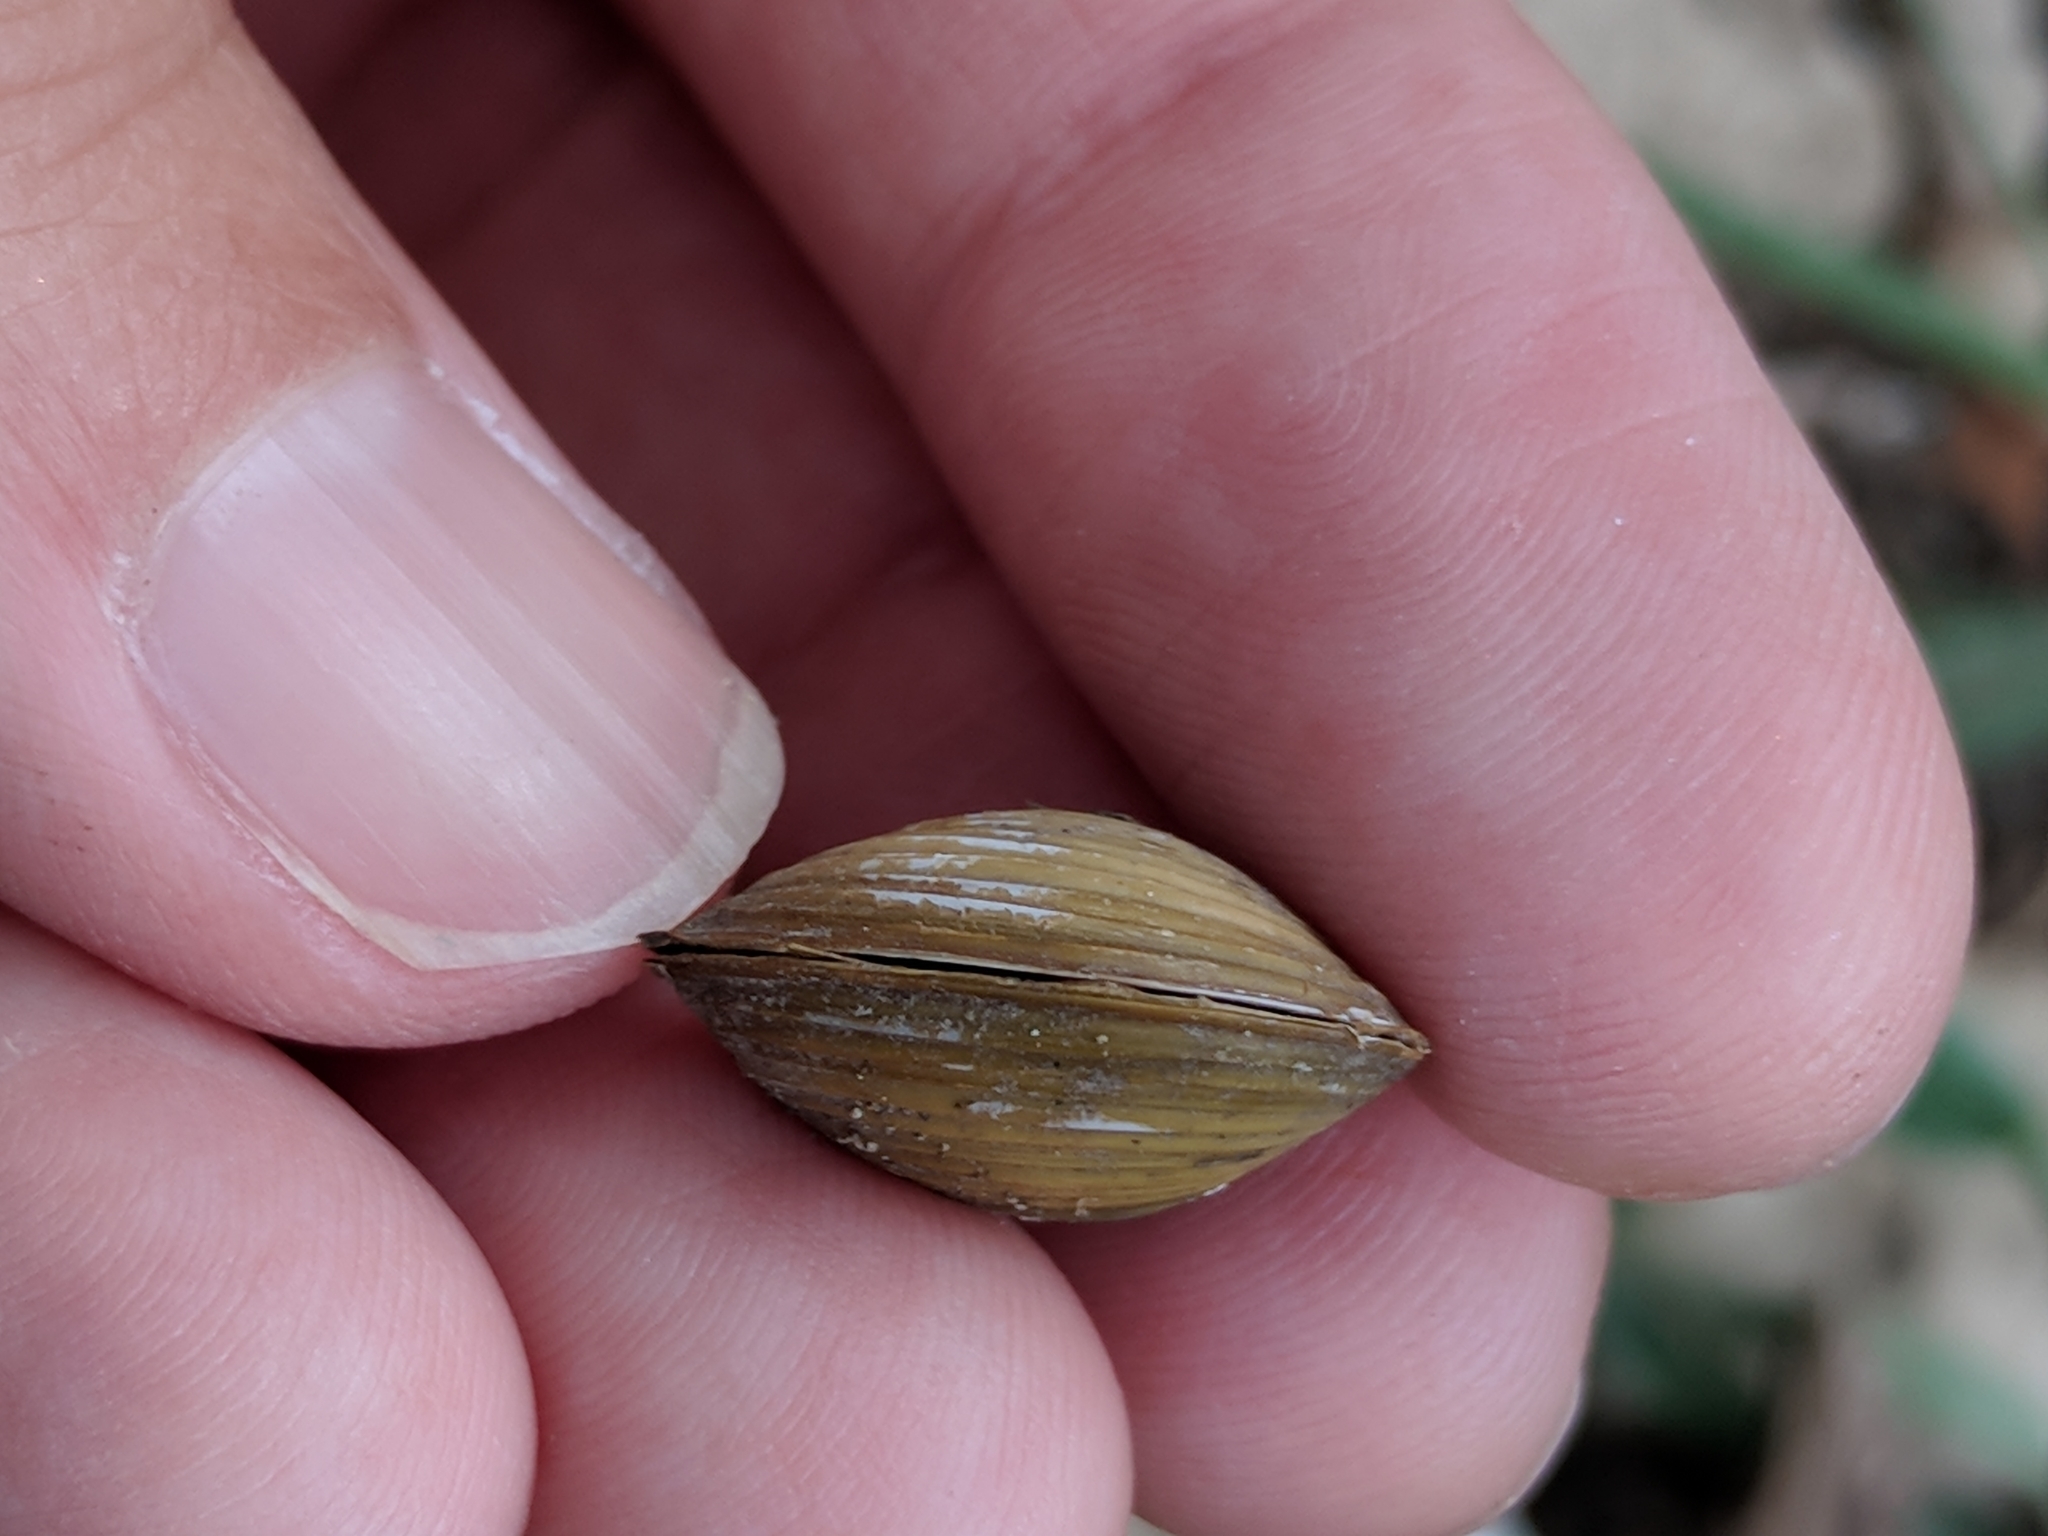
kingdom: Animalia
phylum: Mollusca
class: Bivalvia
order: Venerida
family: Cyrenidae
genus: Corbicula
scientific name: Corbicula fluminea
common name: Asian clam
